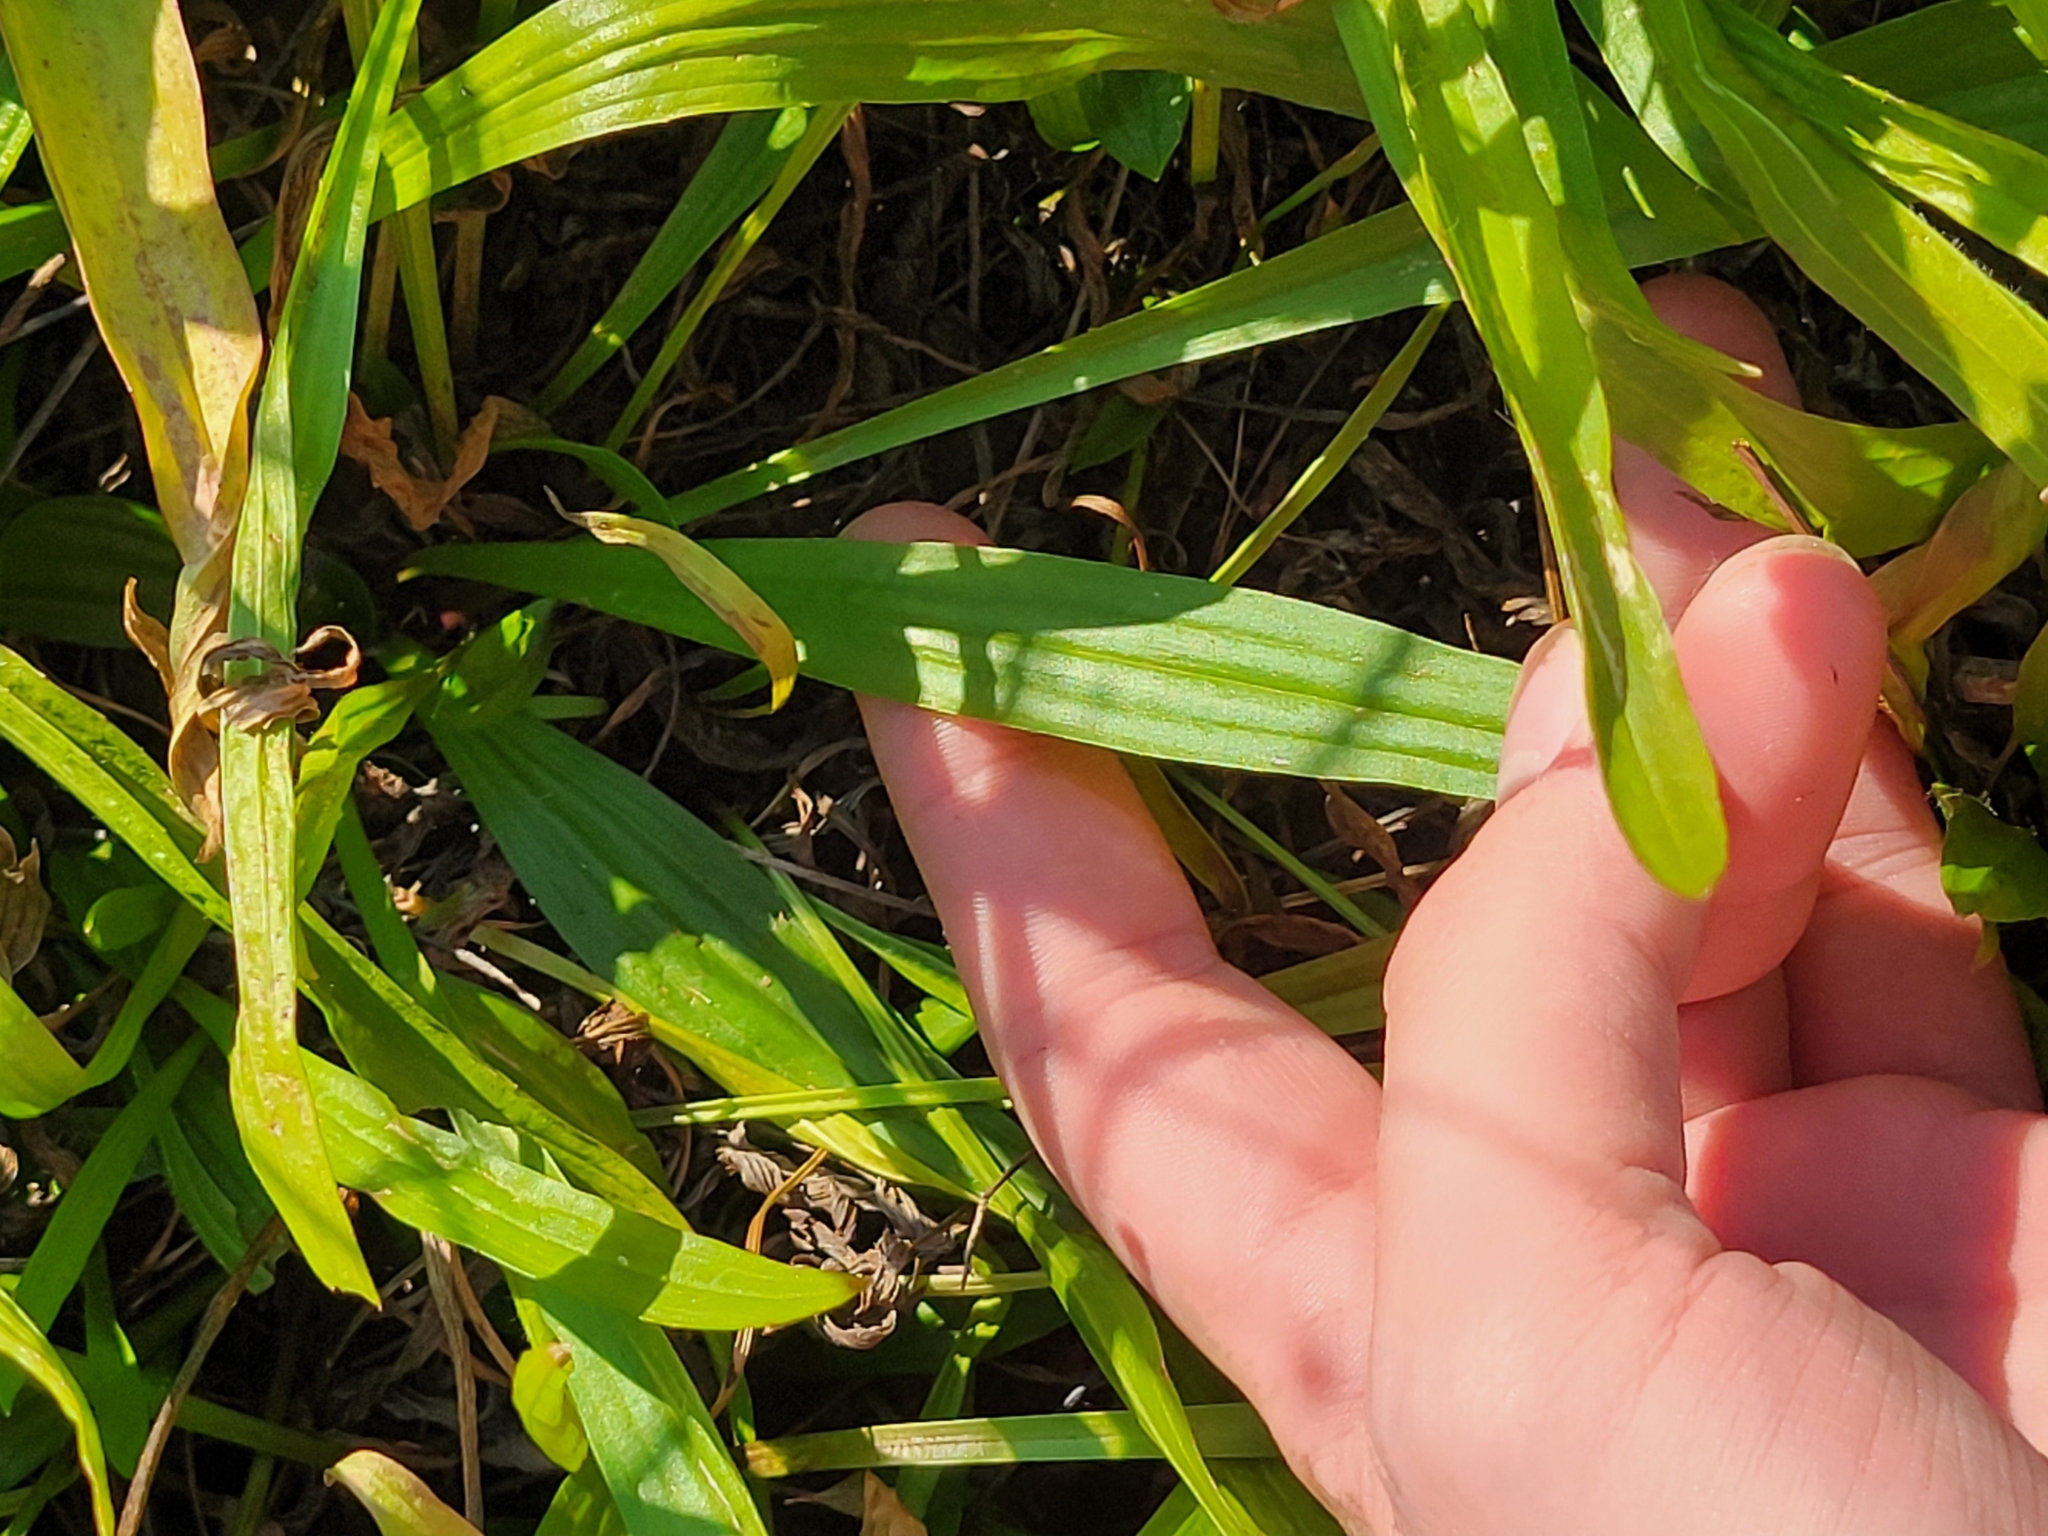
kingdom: Plantae
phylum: Tracheophyta
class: Magnoliopsida
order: Lamiales
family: Plantaginaceae
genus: Plantago
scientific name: Plantago lanceolata
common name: Ribwort plantain
